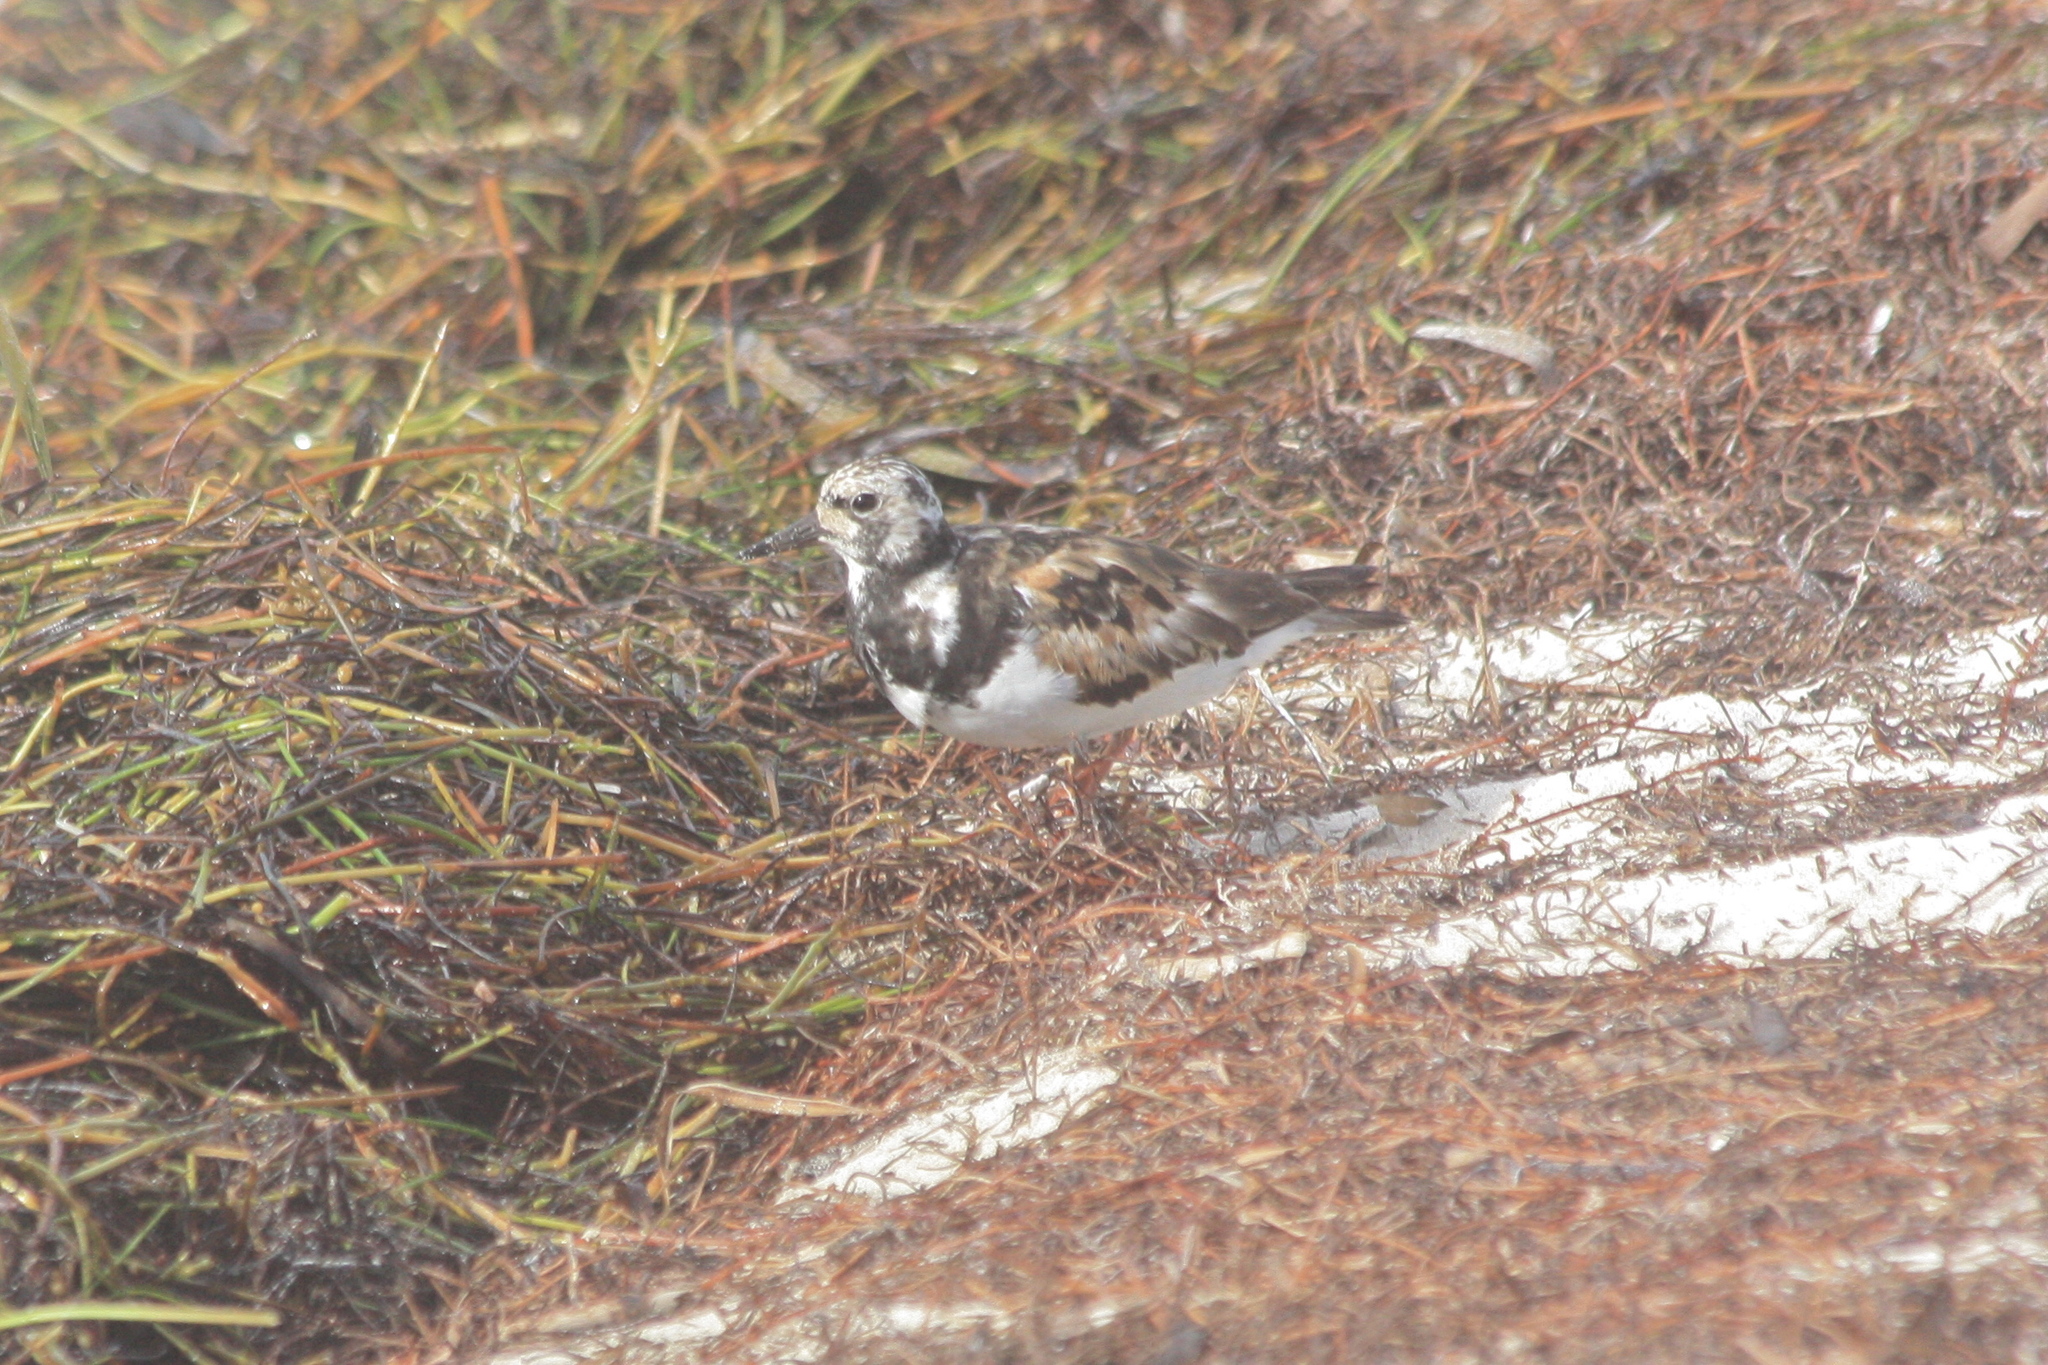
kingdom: Animalia
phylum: Chordata
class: Aves
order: Charadriiformes
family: Scolopacidae
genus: Arenaria
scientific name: Arenaria interpres
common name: Ruddy turnstone
